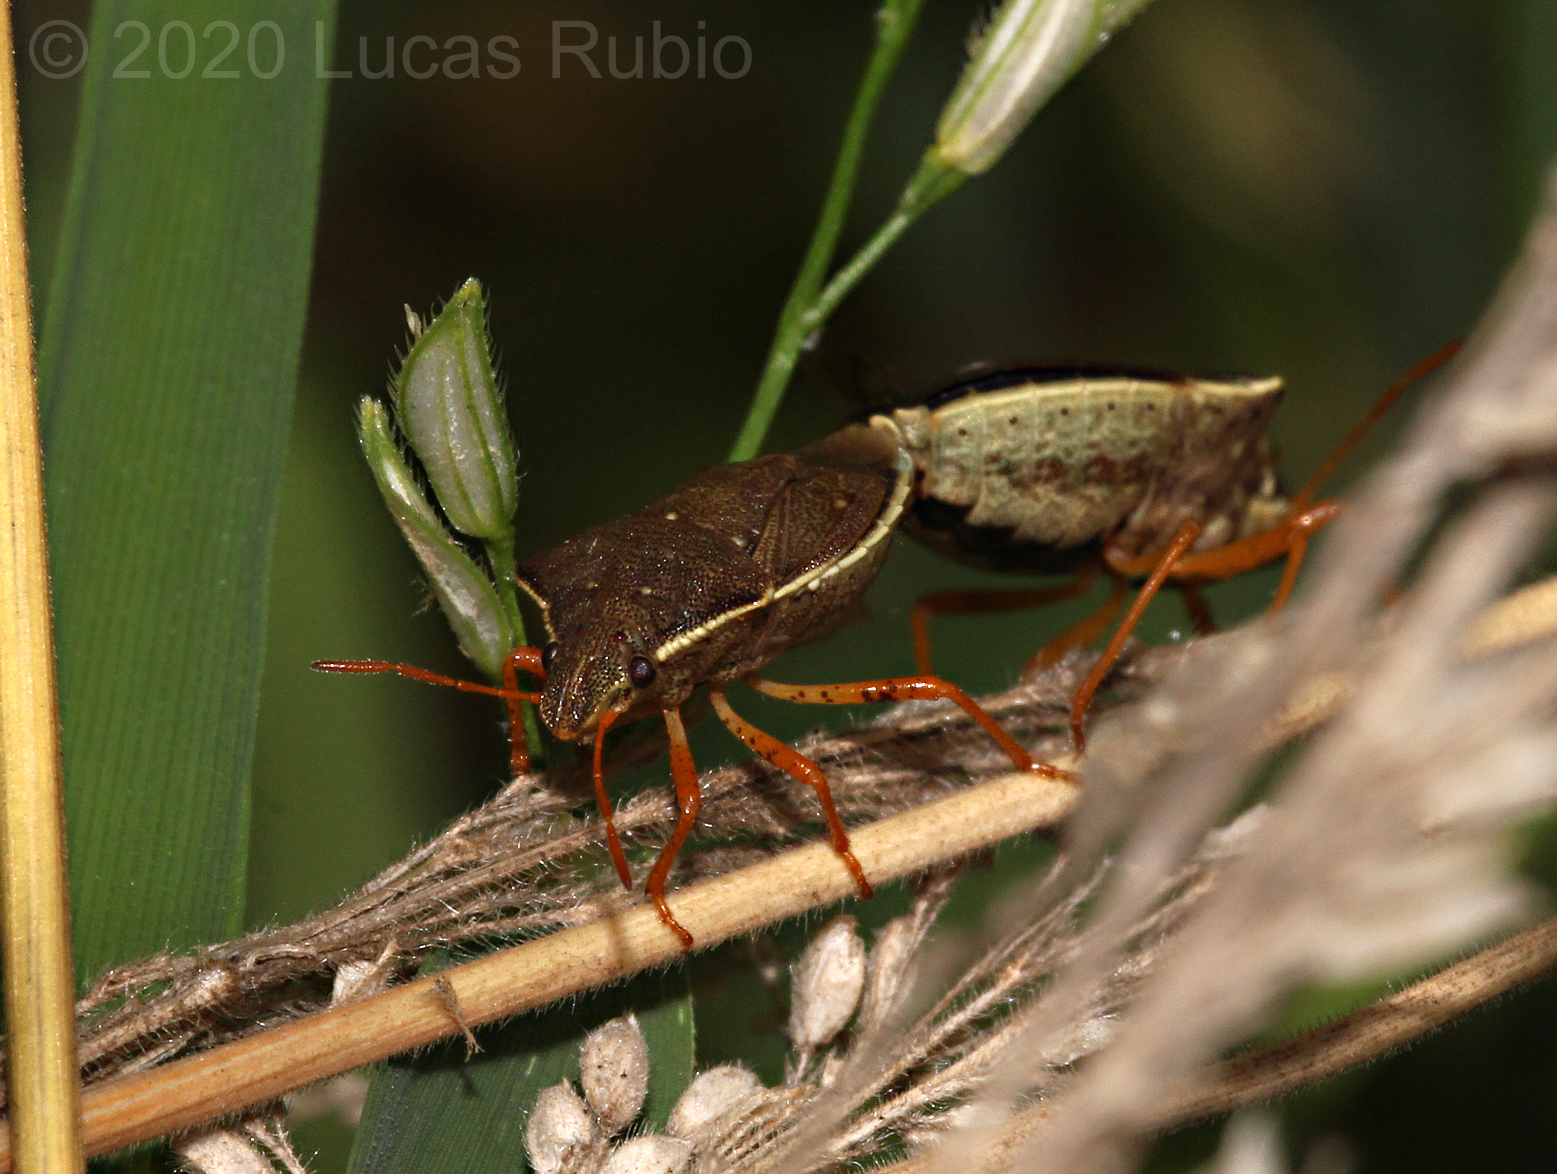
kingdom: Animalia
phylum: Arthropoda
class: Insecta
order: Hemiptera
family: Pentatomidae
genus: Mormidea
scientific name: Mormidea
